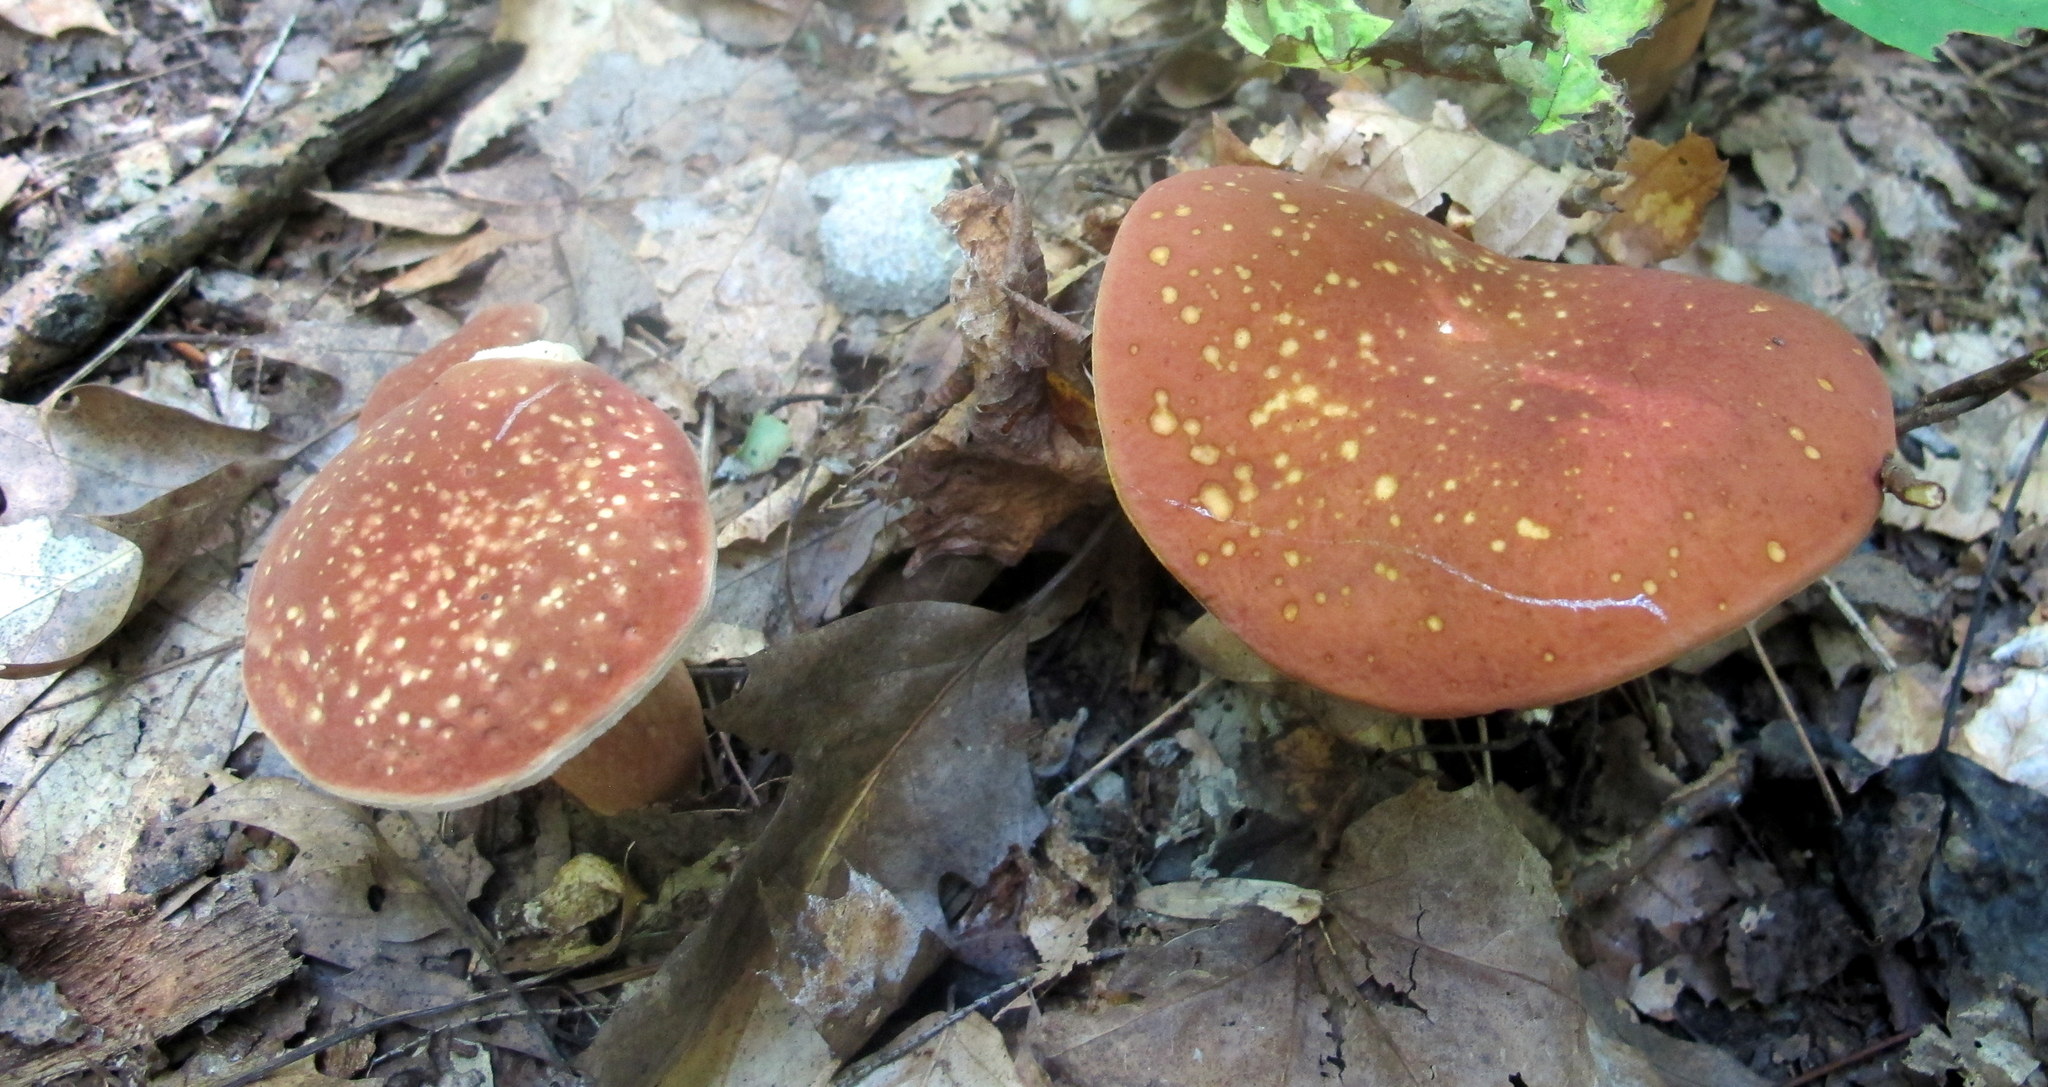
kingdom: Fungi
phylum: Basidiomycota
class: Agaricomycetes
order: Boletales
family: Boletaceae
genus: Xanthoconium
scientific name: Xanthoconium affine
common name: Spotted bolete
